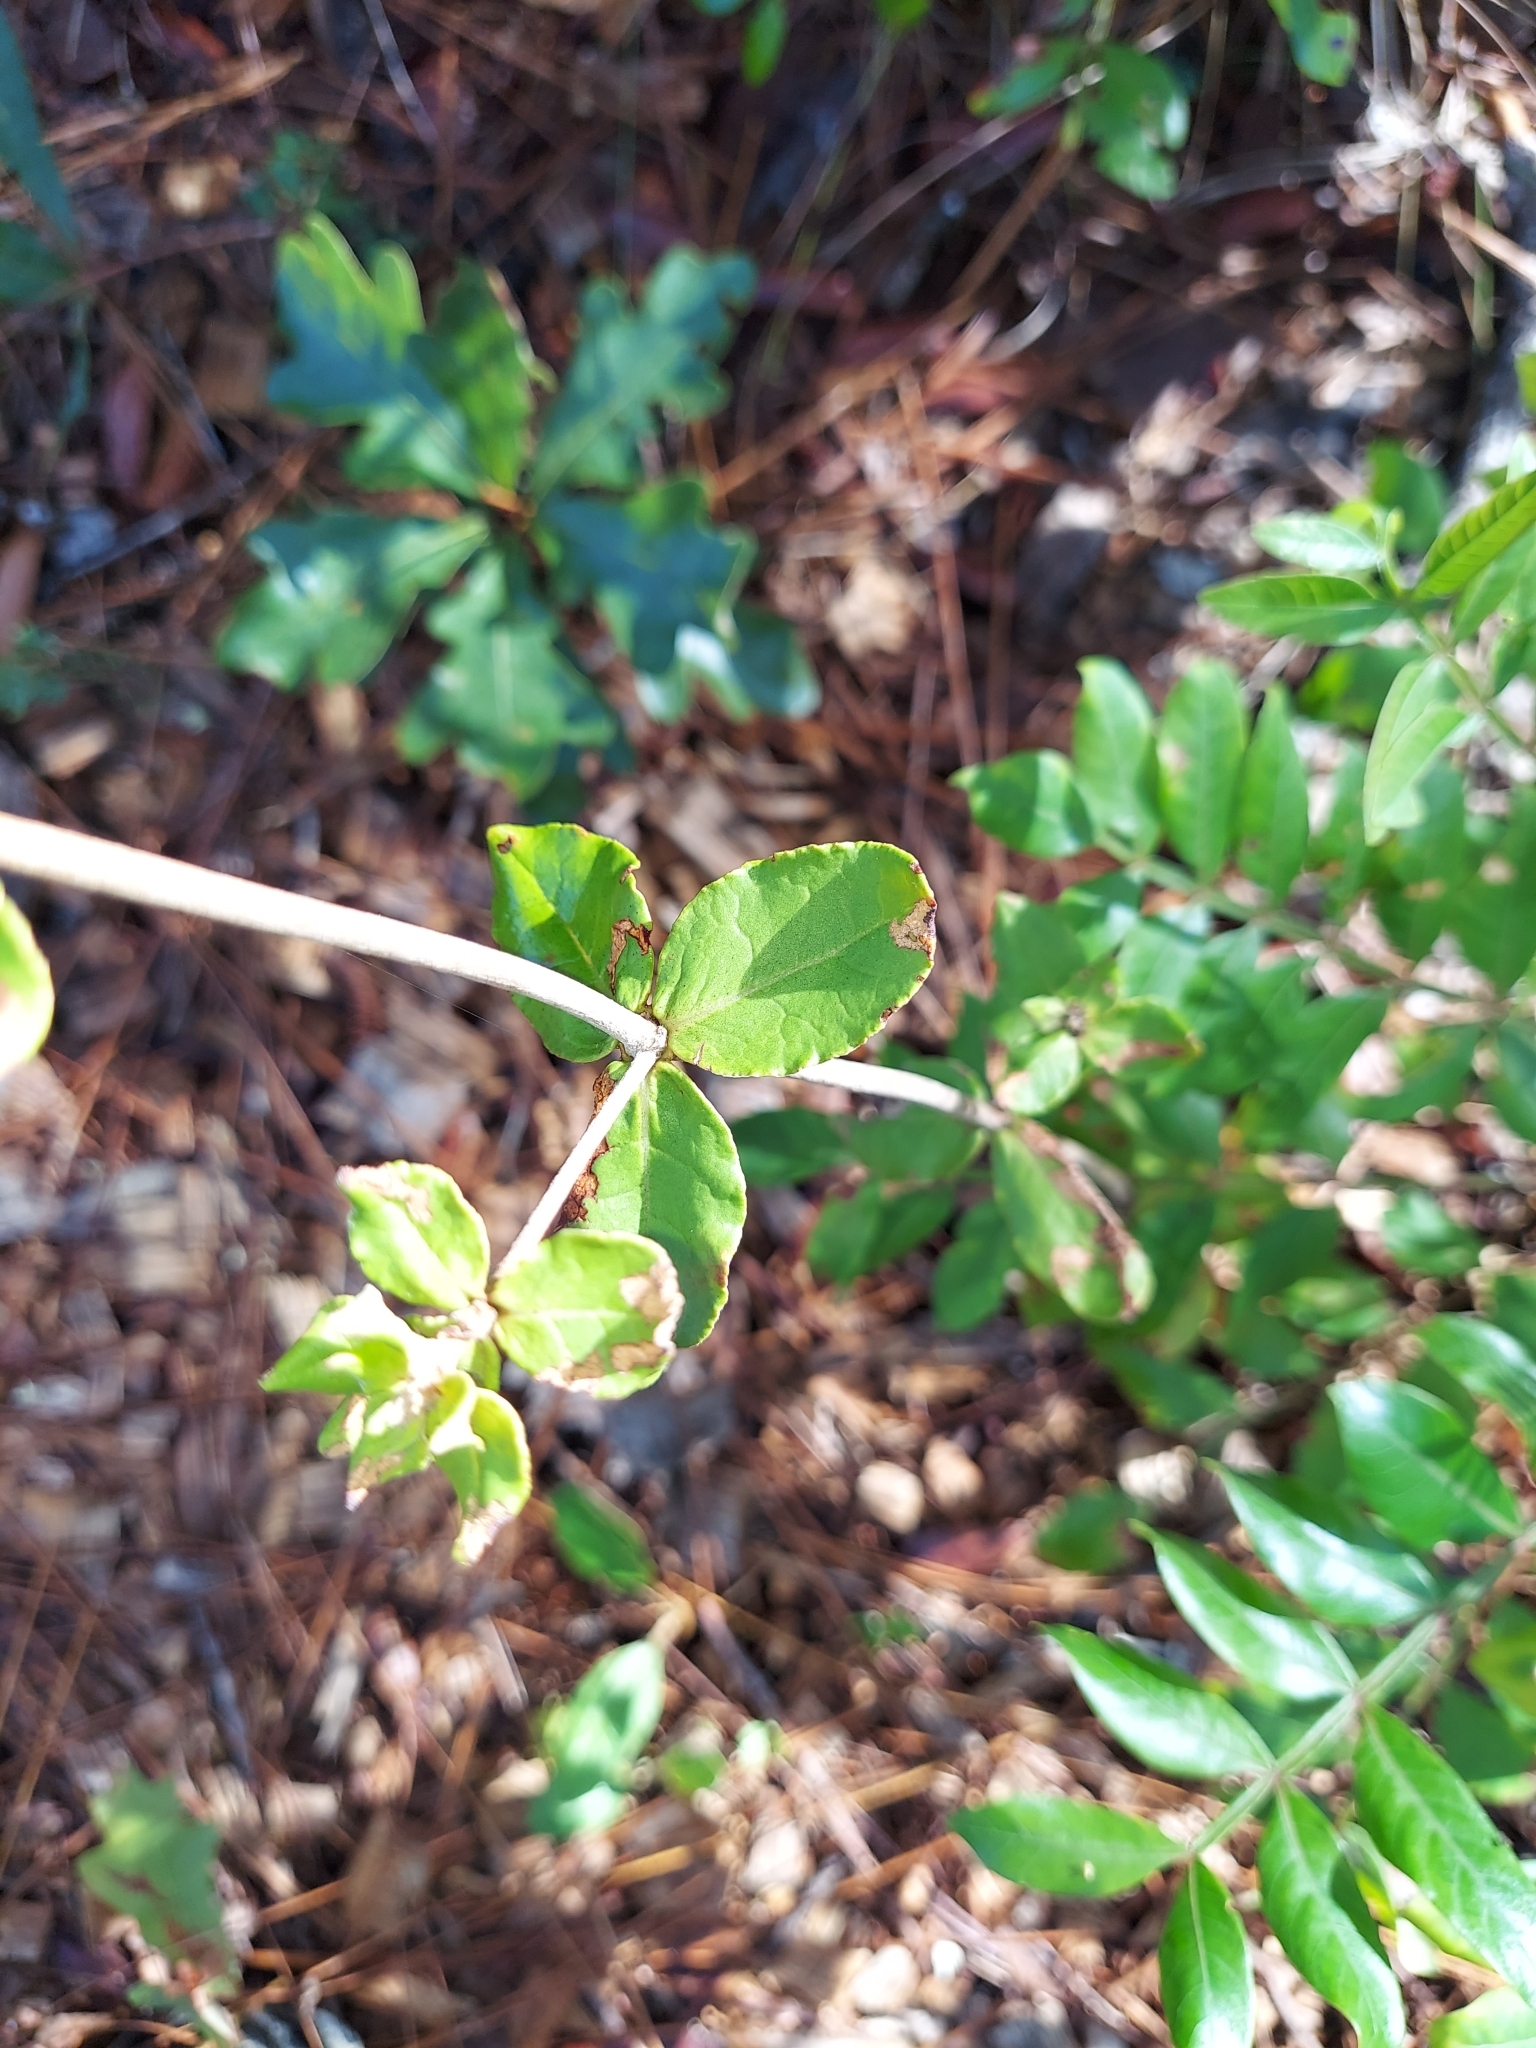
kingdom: Plantae
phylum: Tracheophyta
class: Magnoliopsida
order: Caryophyllales
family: Polygonaceae
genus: Eriogonum
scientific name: Eriogonum tomentosum
